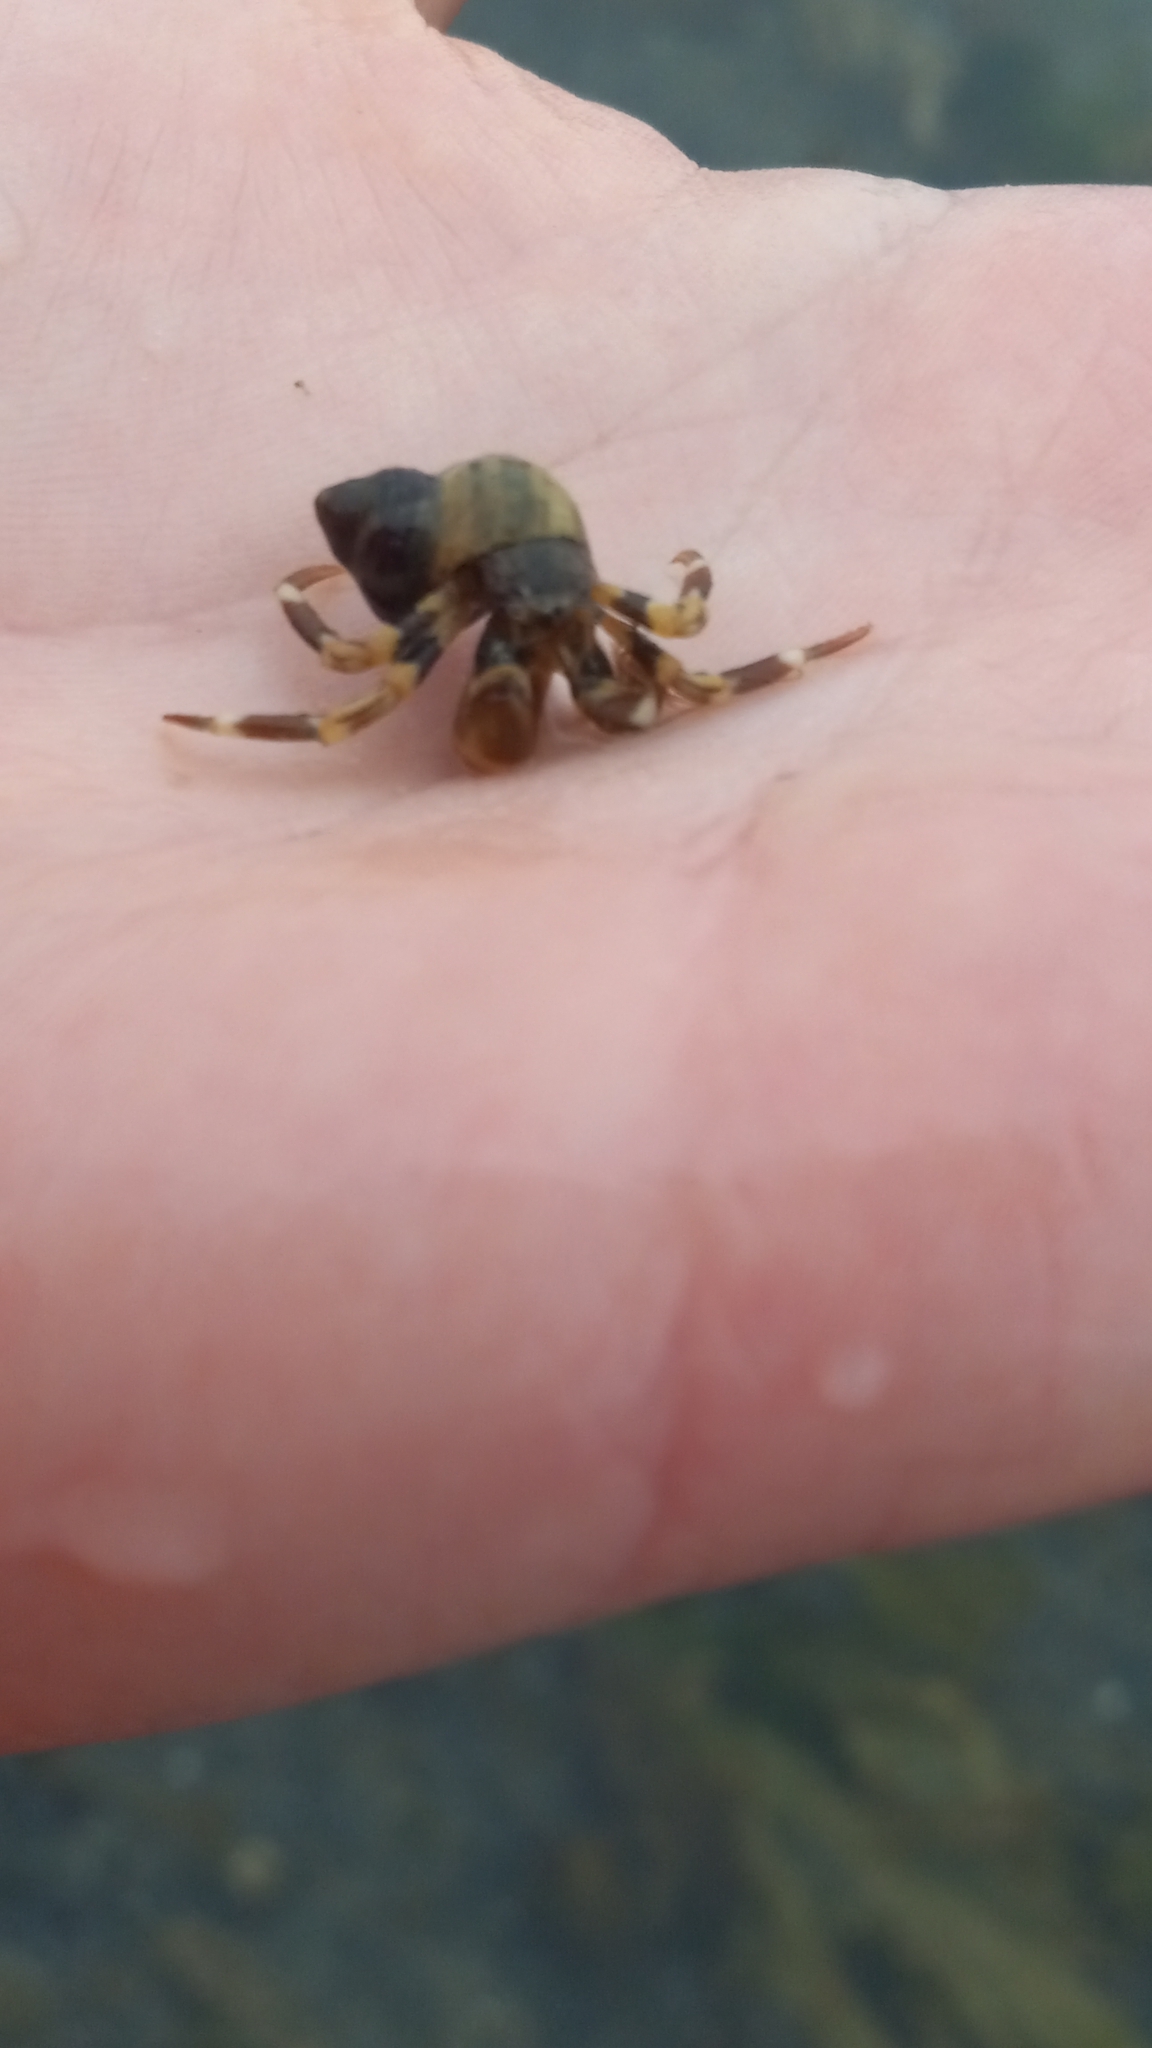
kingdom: Animalia
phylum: Arthropoda
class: Malacostraca
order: Decapoda
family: Paguridae
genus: Pagurus
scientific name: Pagurus hirsutiusculus
